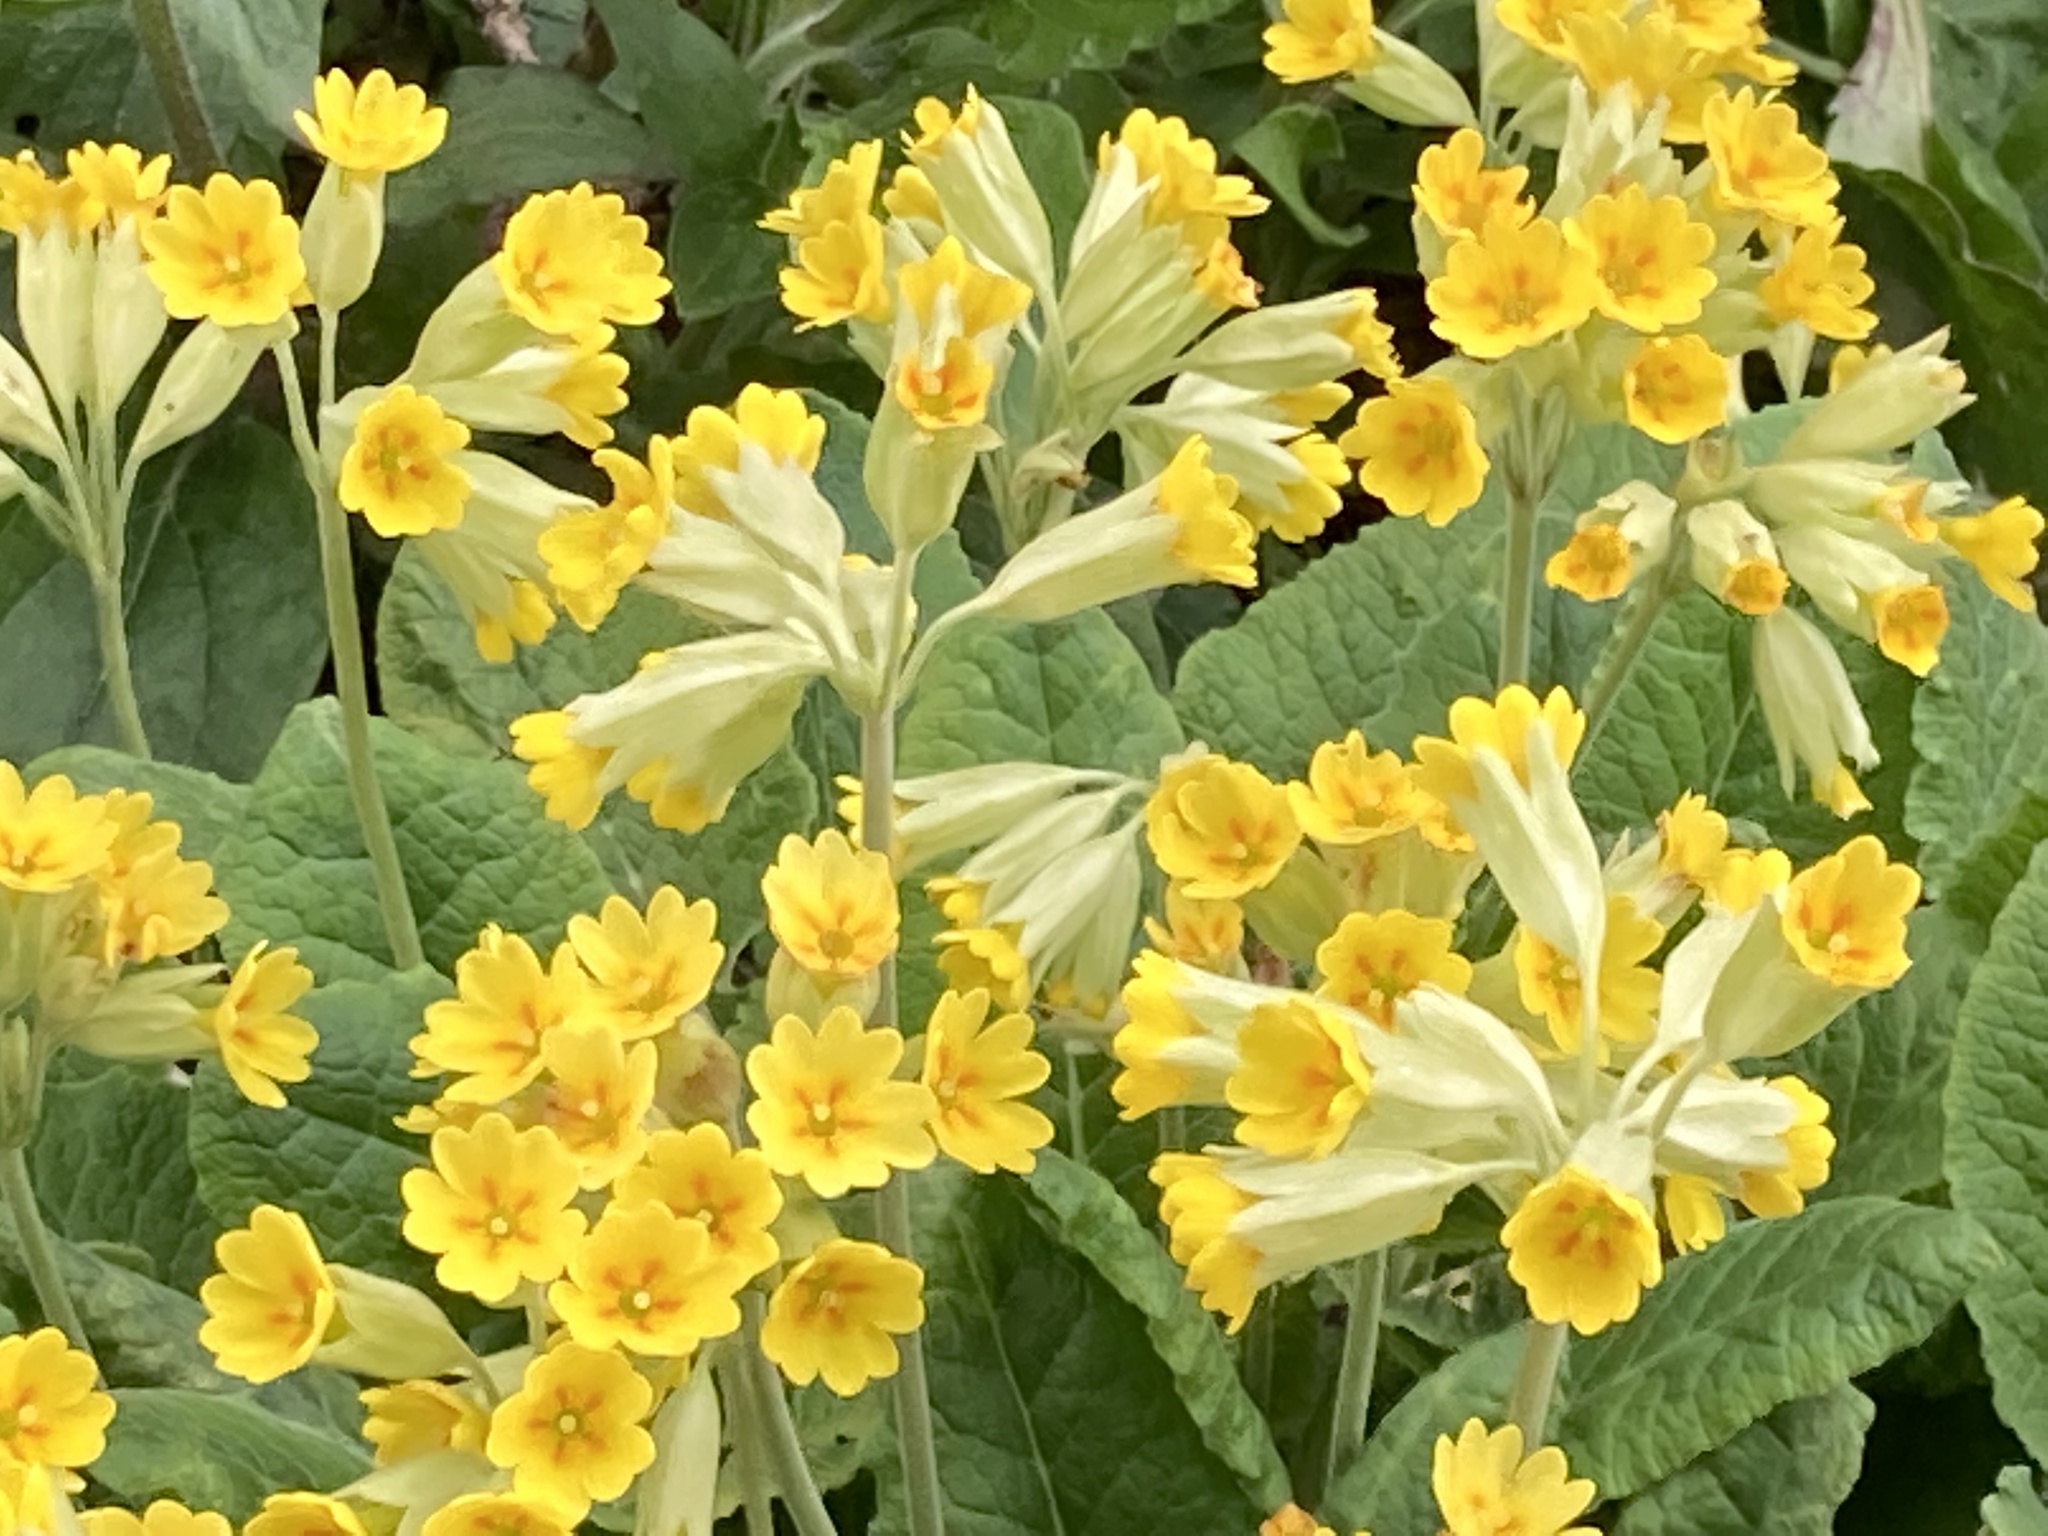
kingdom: Plantae
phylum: Tracheophyta
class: Magnoliopsida
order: Ericales
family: Primulaceae
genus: Primula
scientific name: Primula veris
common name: Cowslip
